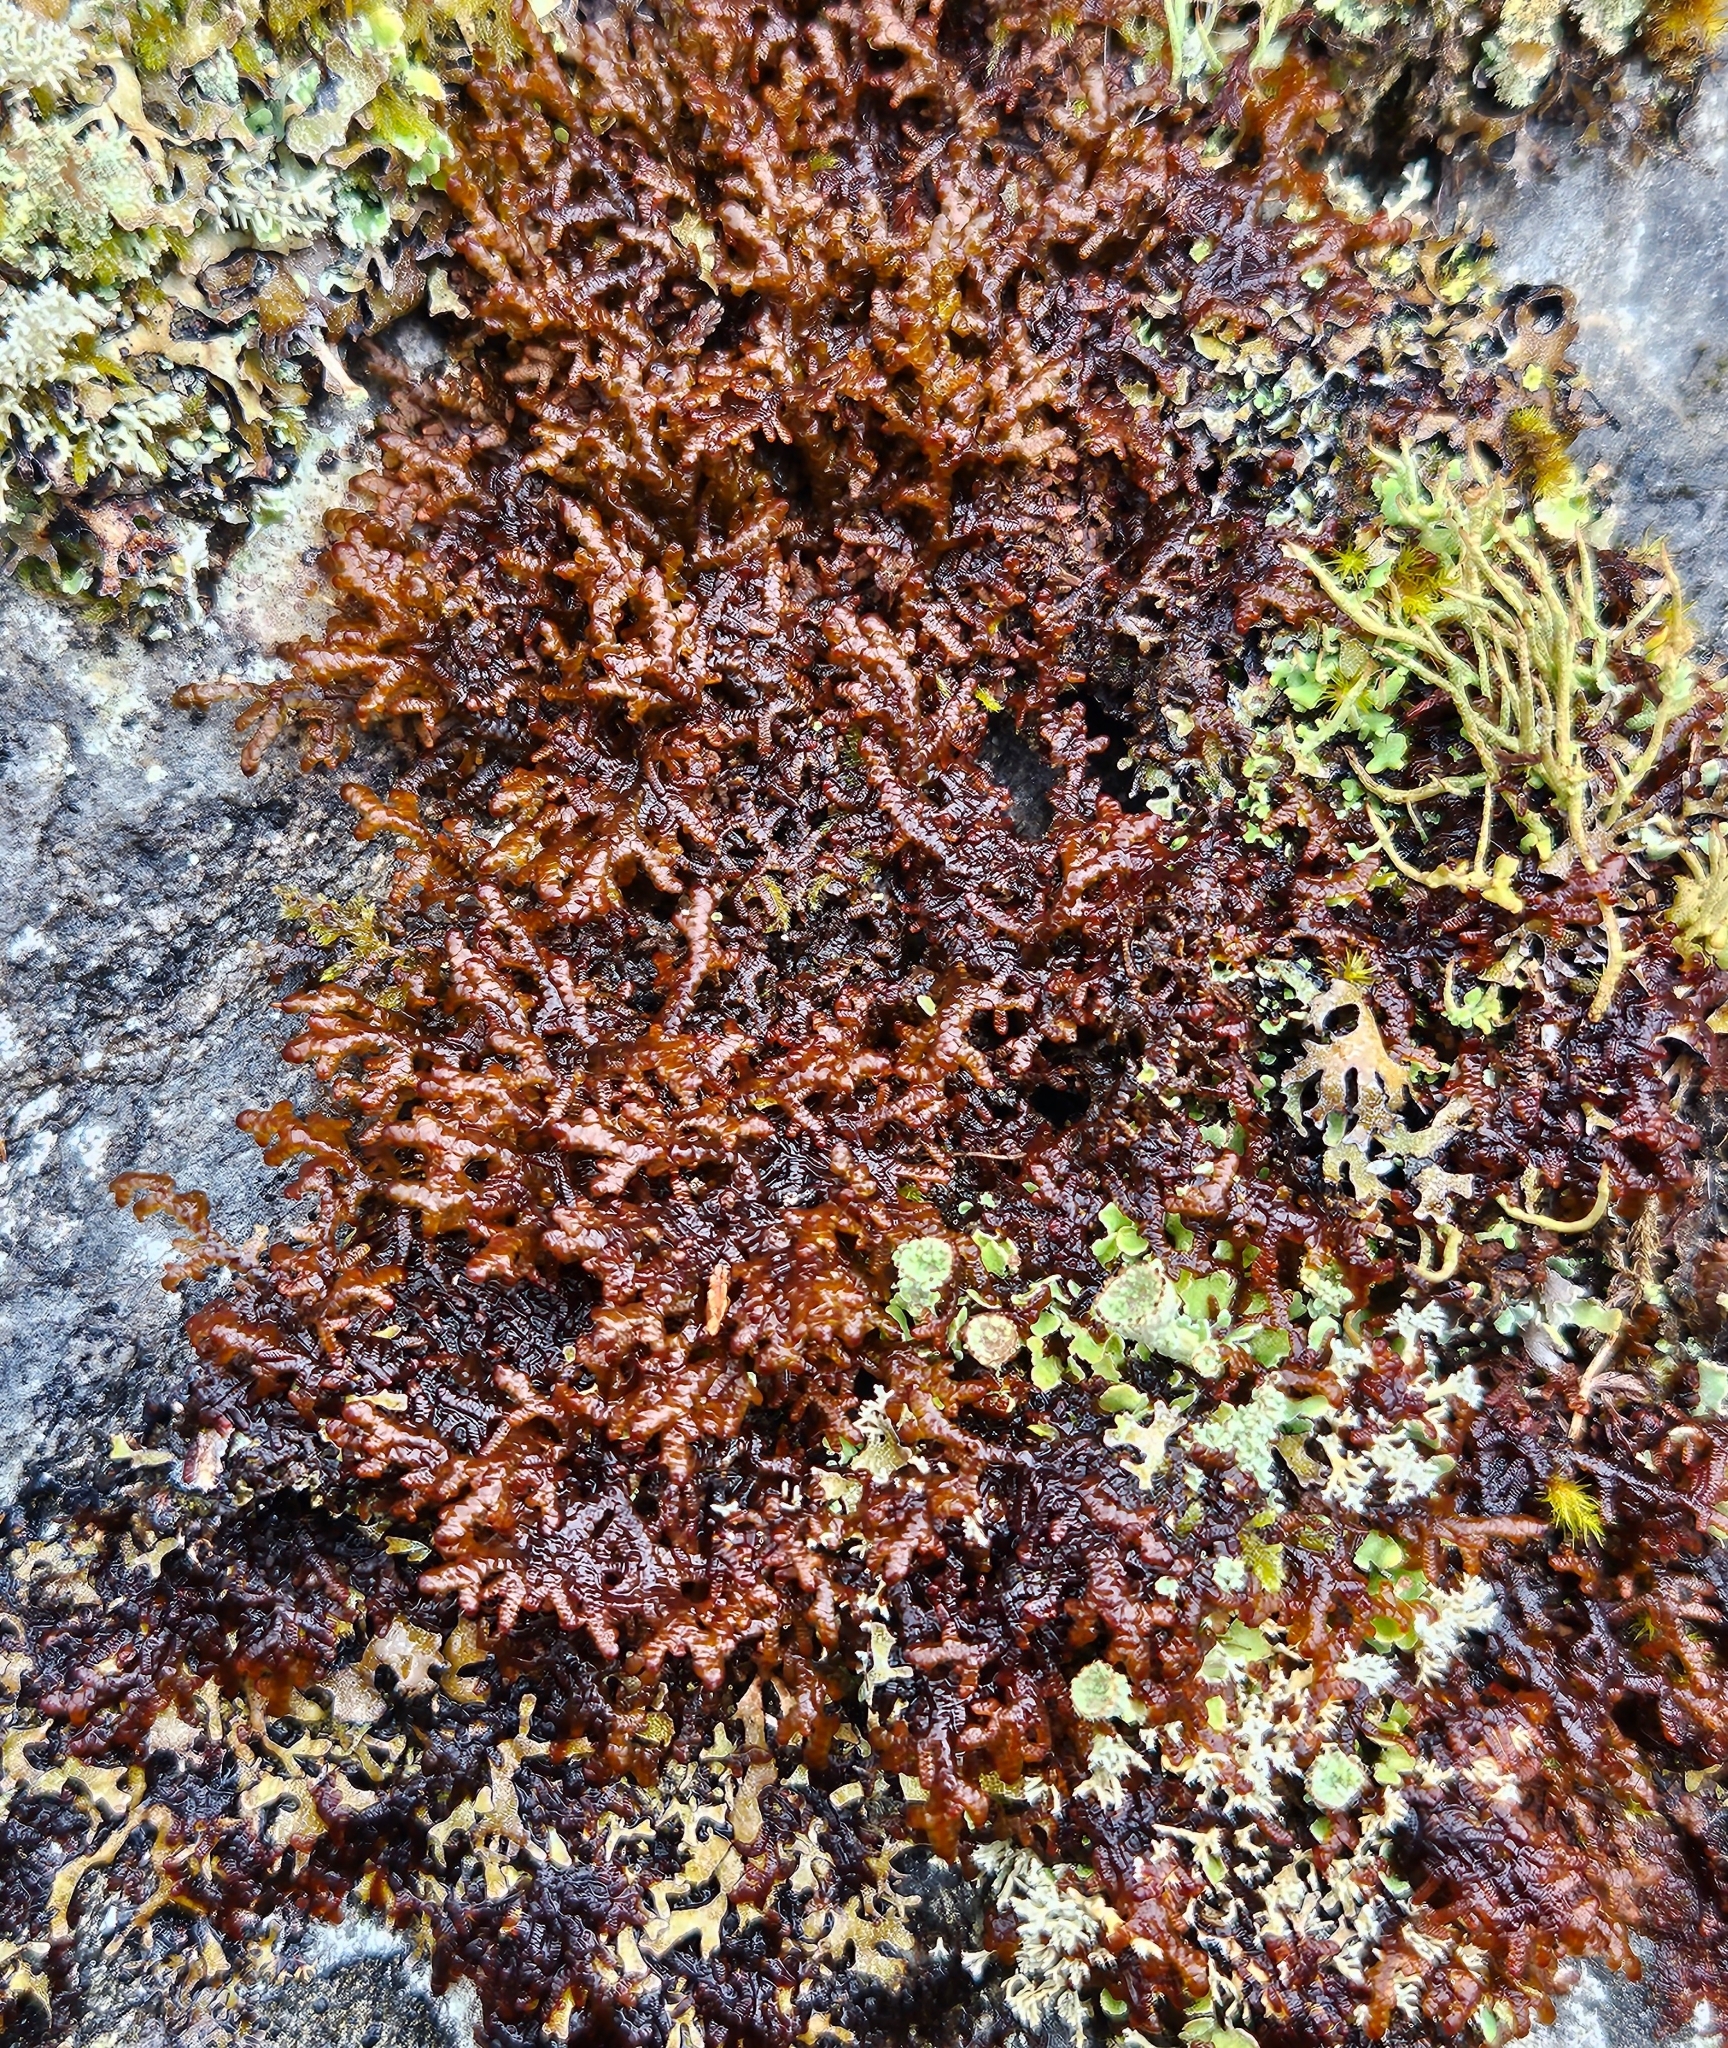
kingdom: Plantae
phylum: Marchantiophyta
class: Jungermanniopsida
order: Porellales
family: Frullaniaceae
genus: Frullania
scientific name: Frullania tamarisci
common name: Tamarisk scalewort
